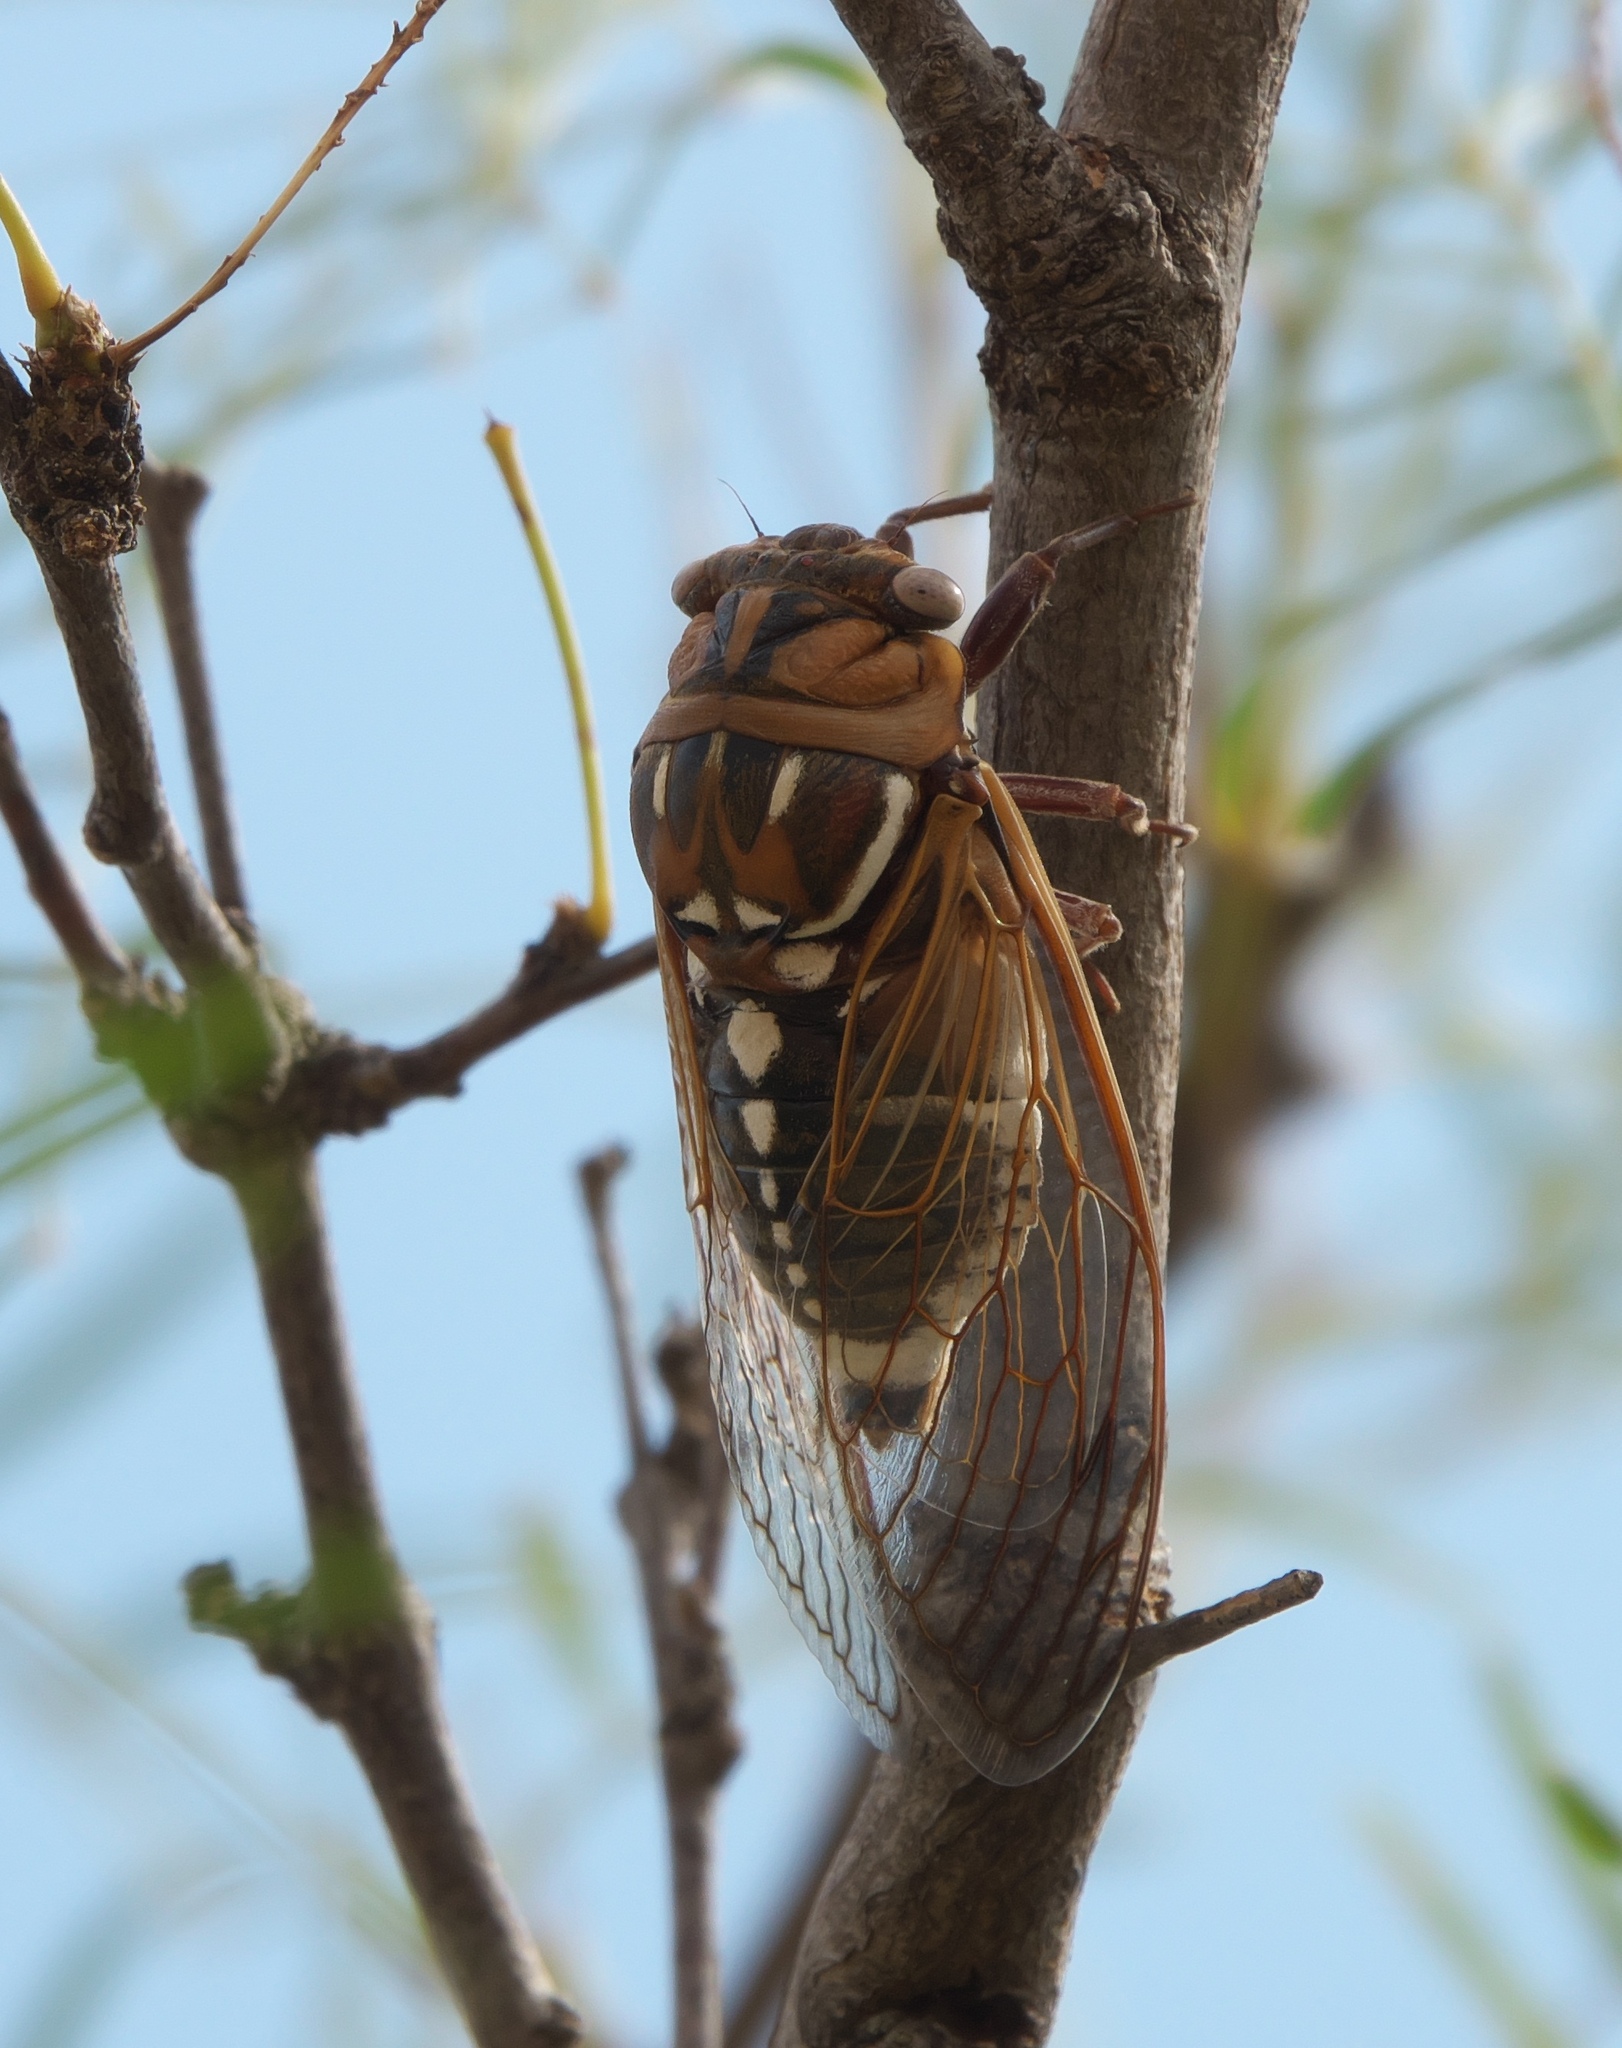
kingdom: Animalia
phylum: Arthropoda
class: Insecta
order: Hemiptera
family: Cicadidae
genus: Megatibicen
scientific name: Megatibicen dorsatus
